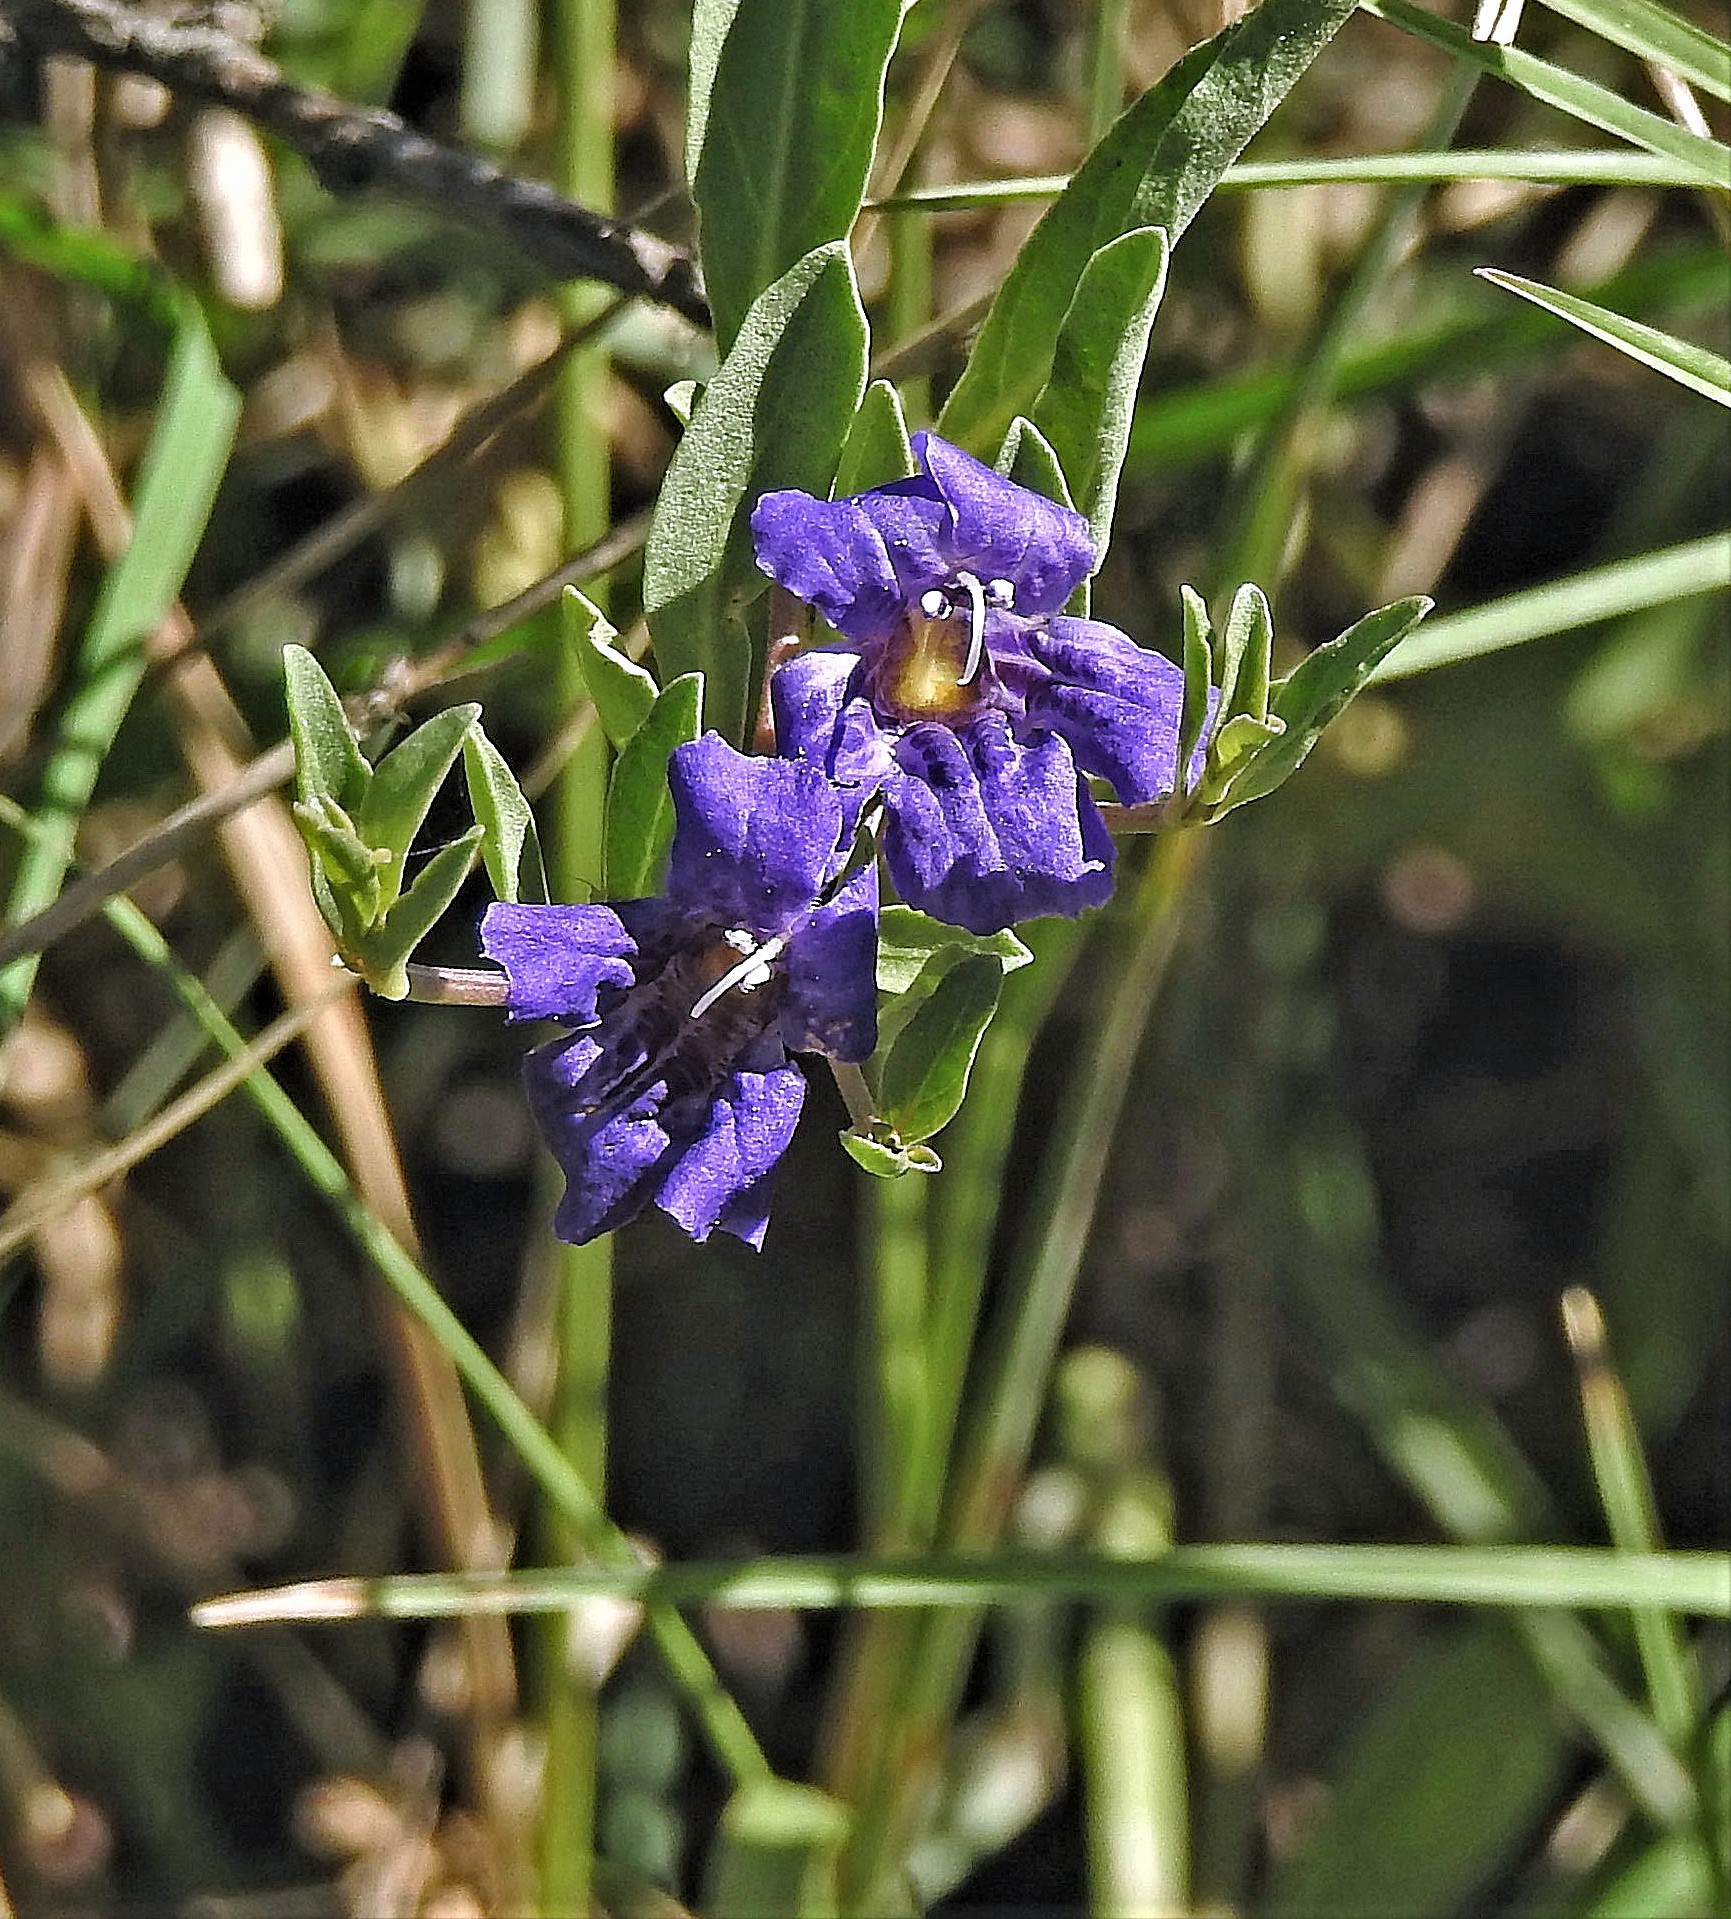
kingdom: Plantae
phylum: Tracheophyta
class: Magnoliopsida
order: Lamiales
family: Acanthaceae
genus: Dyschoriste
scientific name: Dyschoriste humilis
